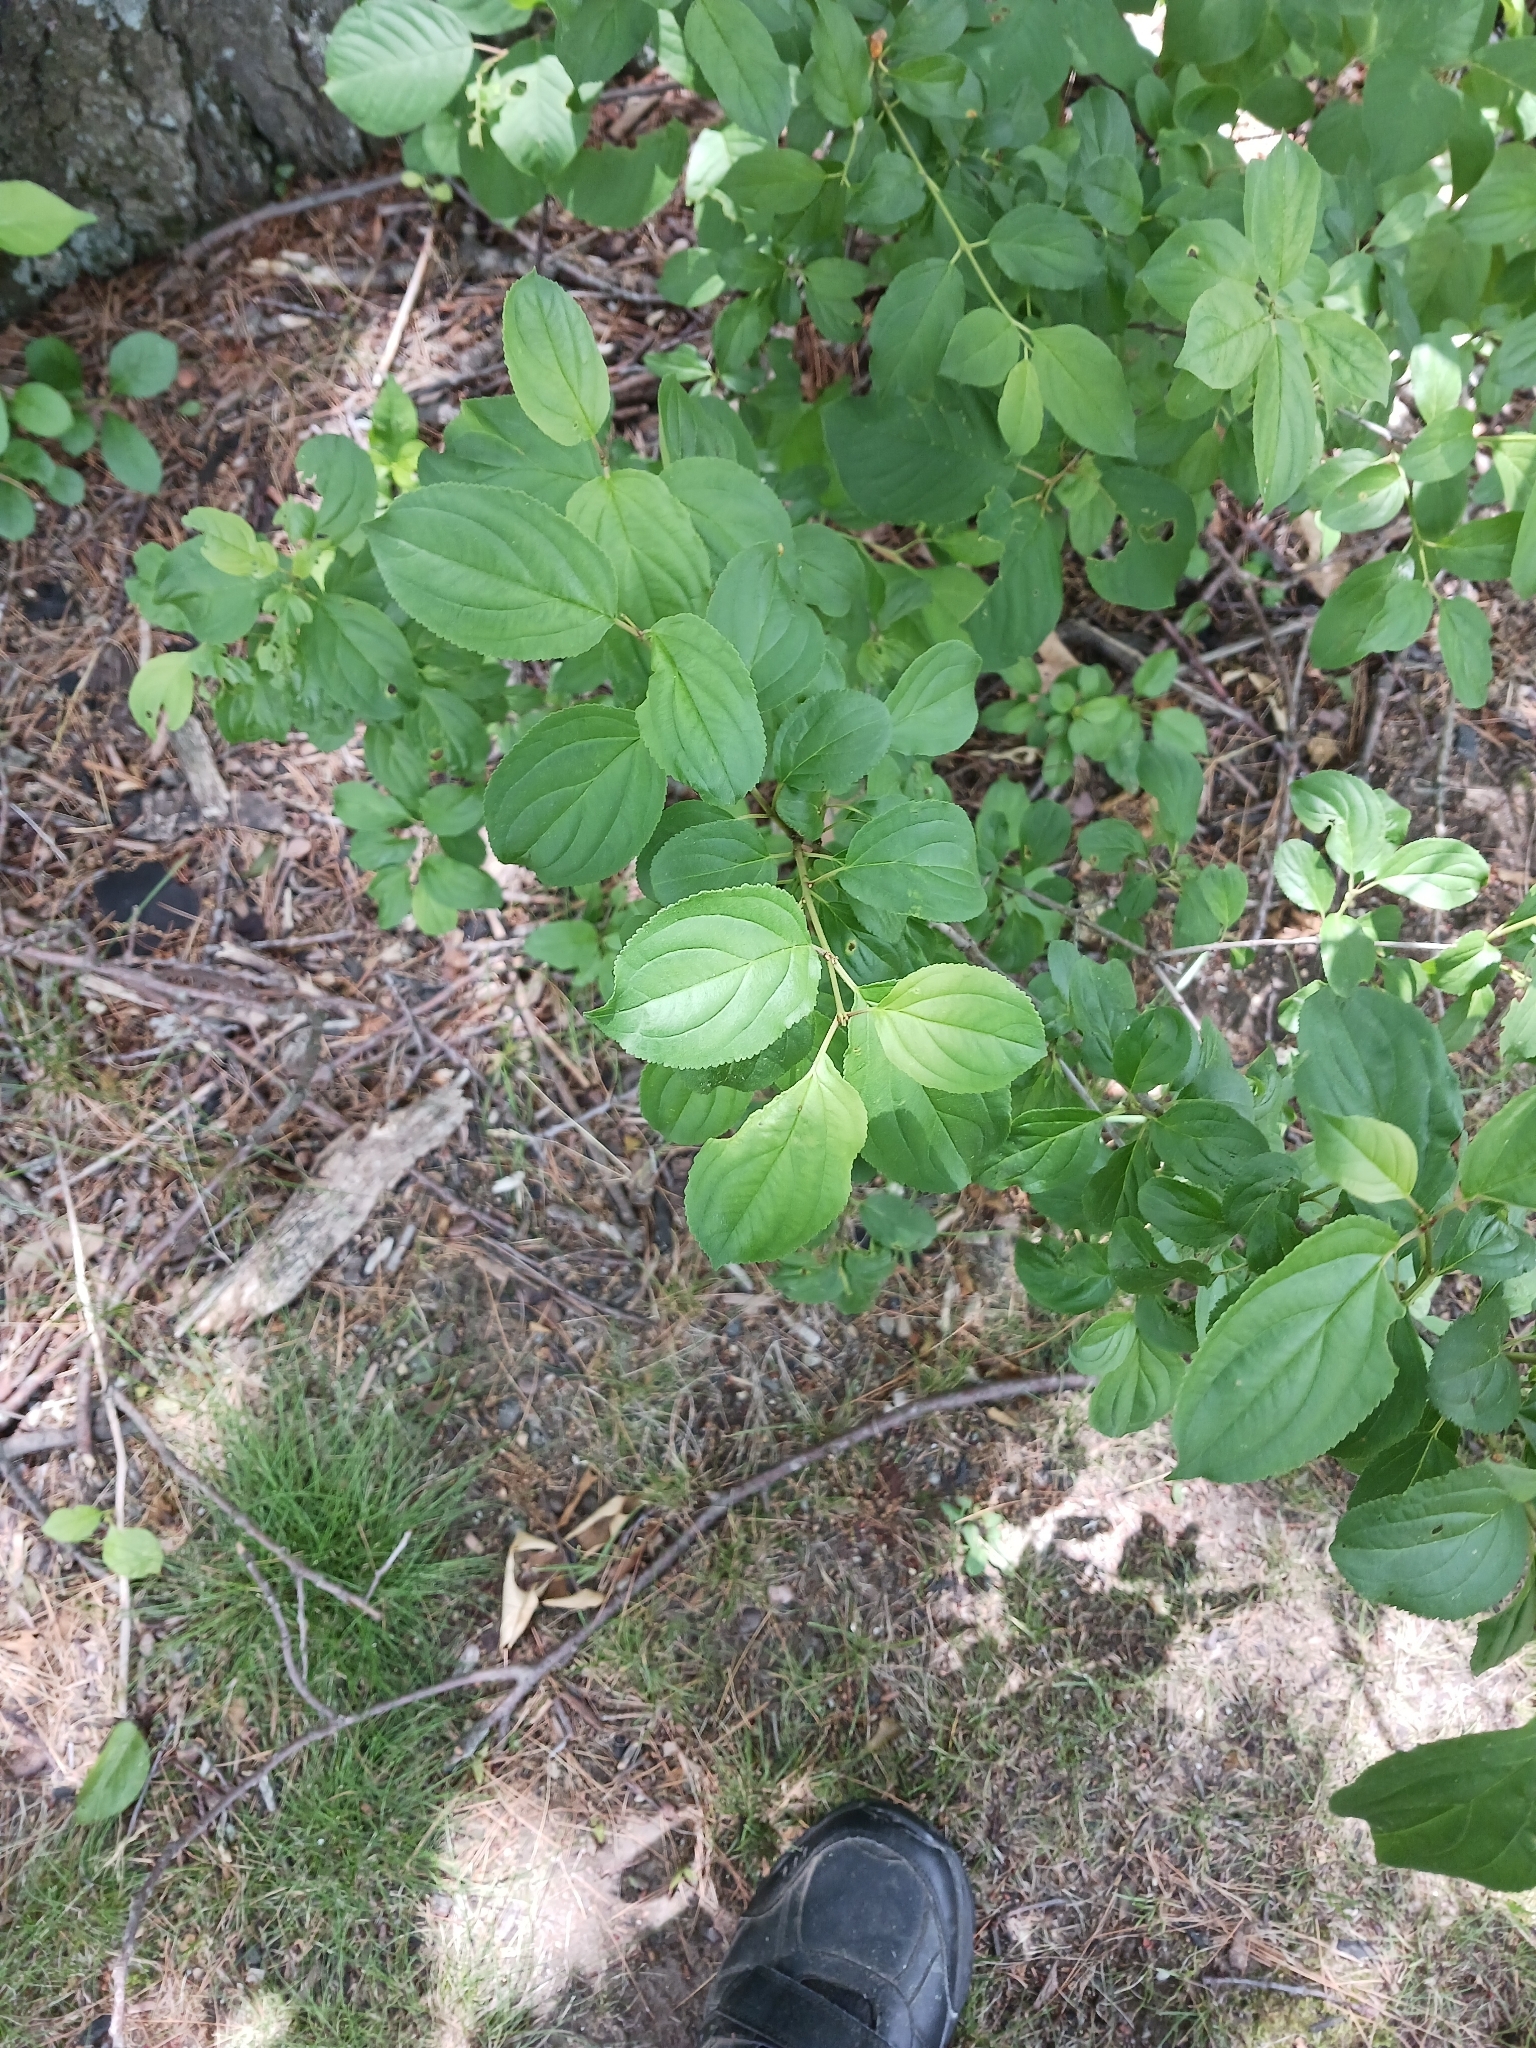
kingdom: Plantae
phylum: Tracheophyta
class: Magnoliopsida
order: Rosales
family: Rhamnaceae
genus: Rhamnus
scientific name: Rhamnus cathartica
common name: Common buckthorn
